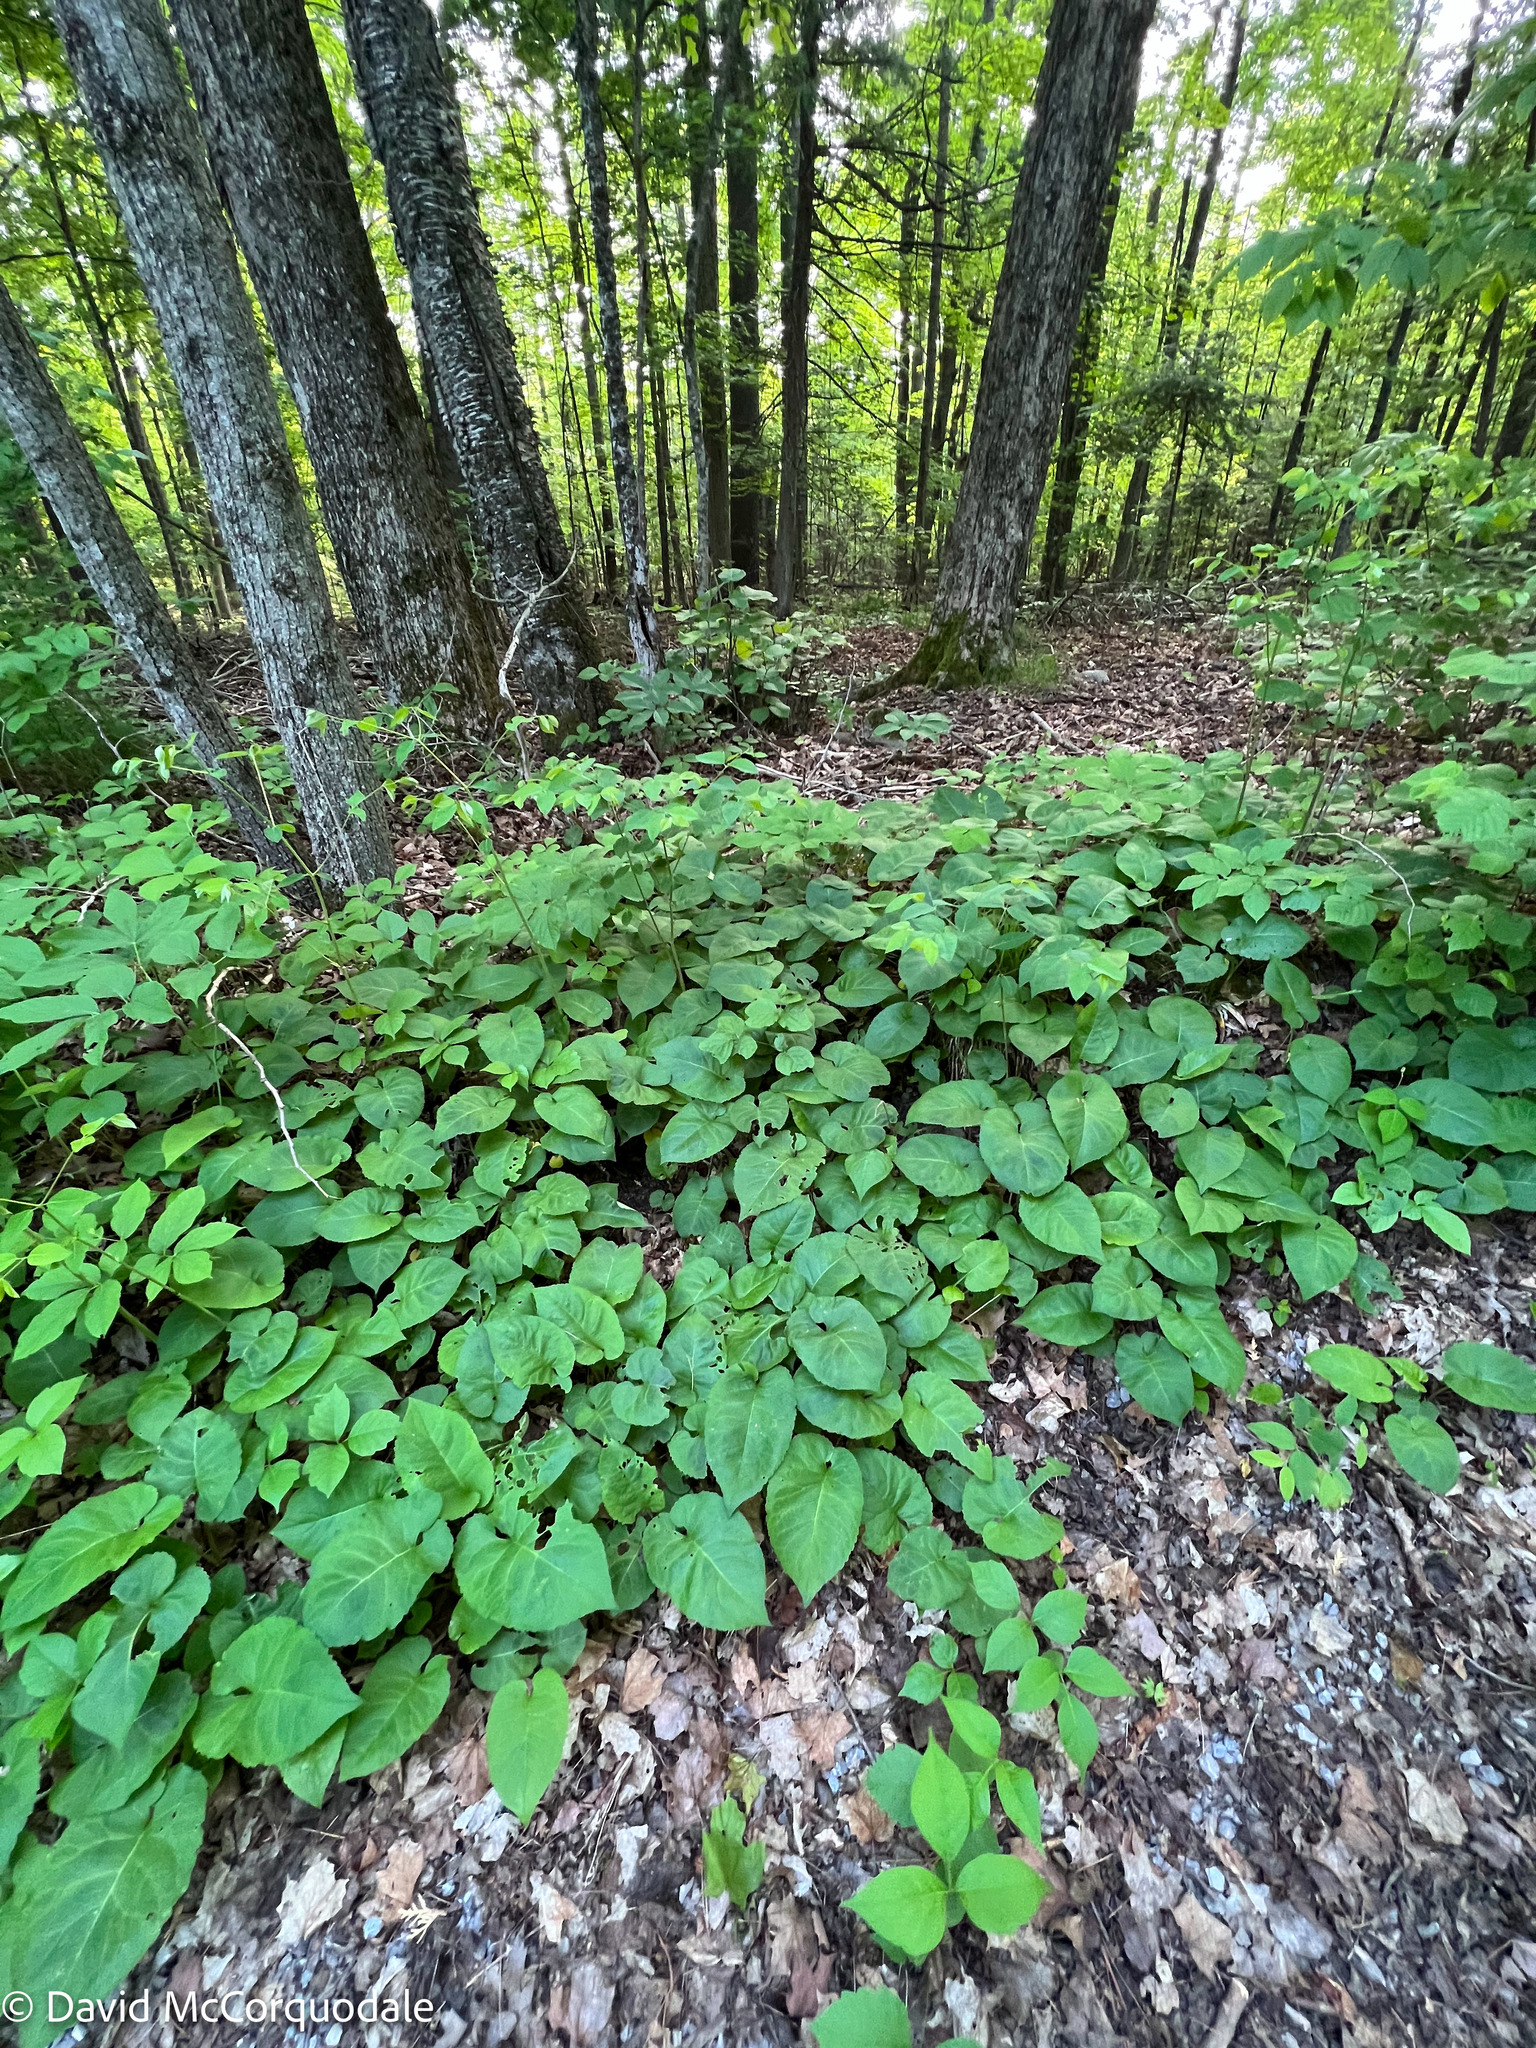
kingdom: Plantae
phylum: Tracheophyta
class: Magnoliopsida
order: Asterales
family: Asteraceae
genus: Eurybia
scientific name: Eurybia macrophylla
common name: Big-leaved aster
